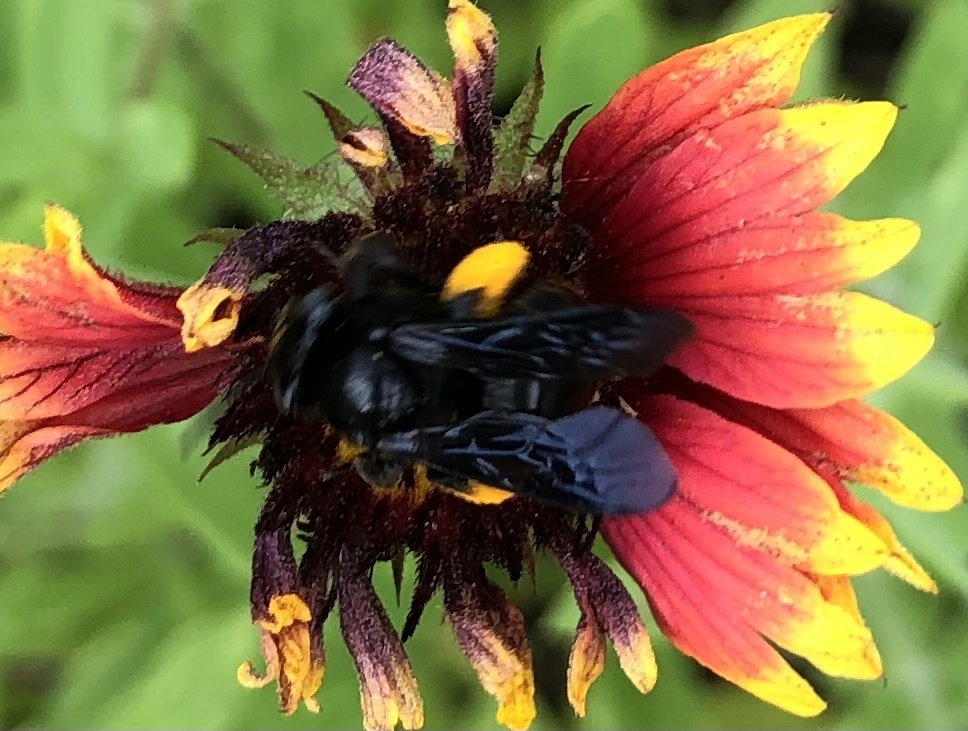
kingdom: Animalia
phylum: Arthropoda
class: Insecta
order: Hymenoptera
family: Apidae
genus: Melissodes
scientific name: Melissodes bimaculatus
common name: Two-spotted long-horned bee
